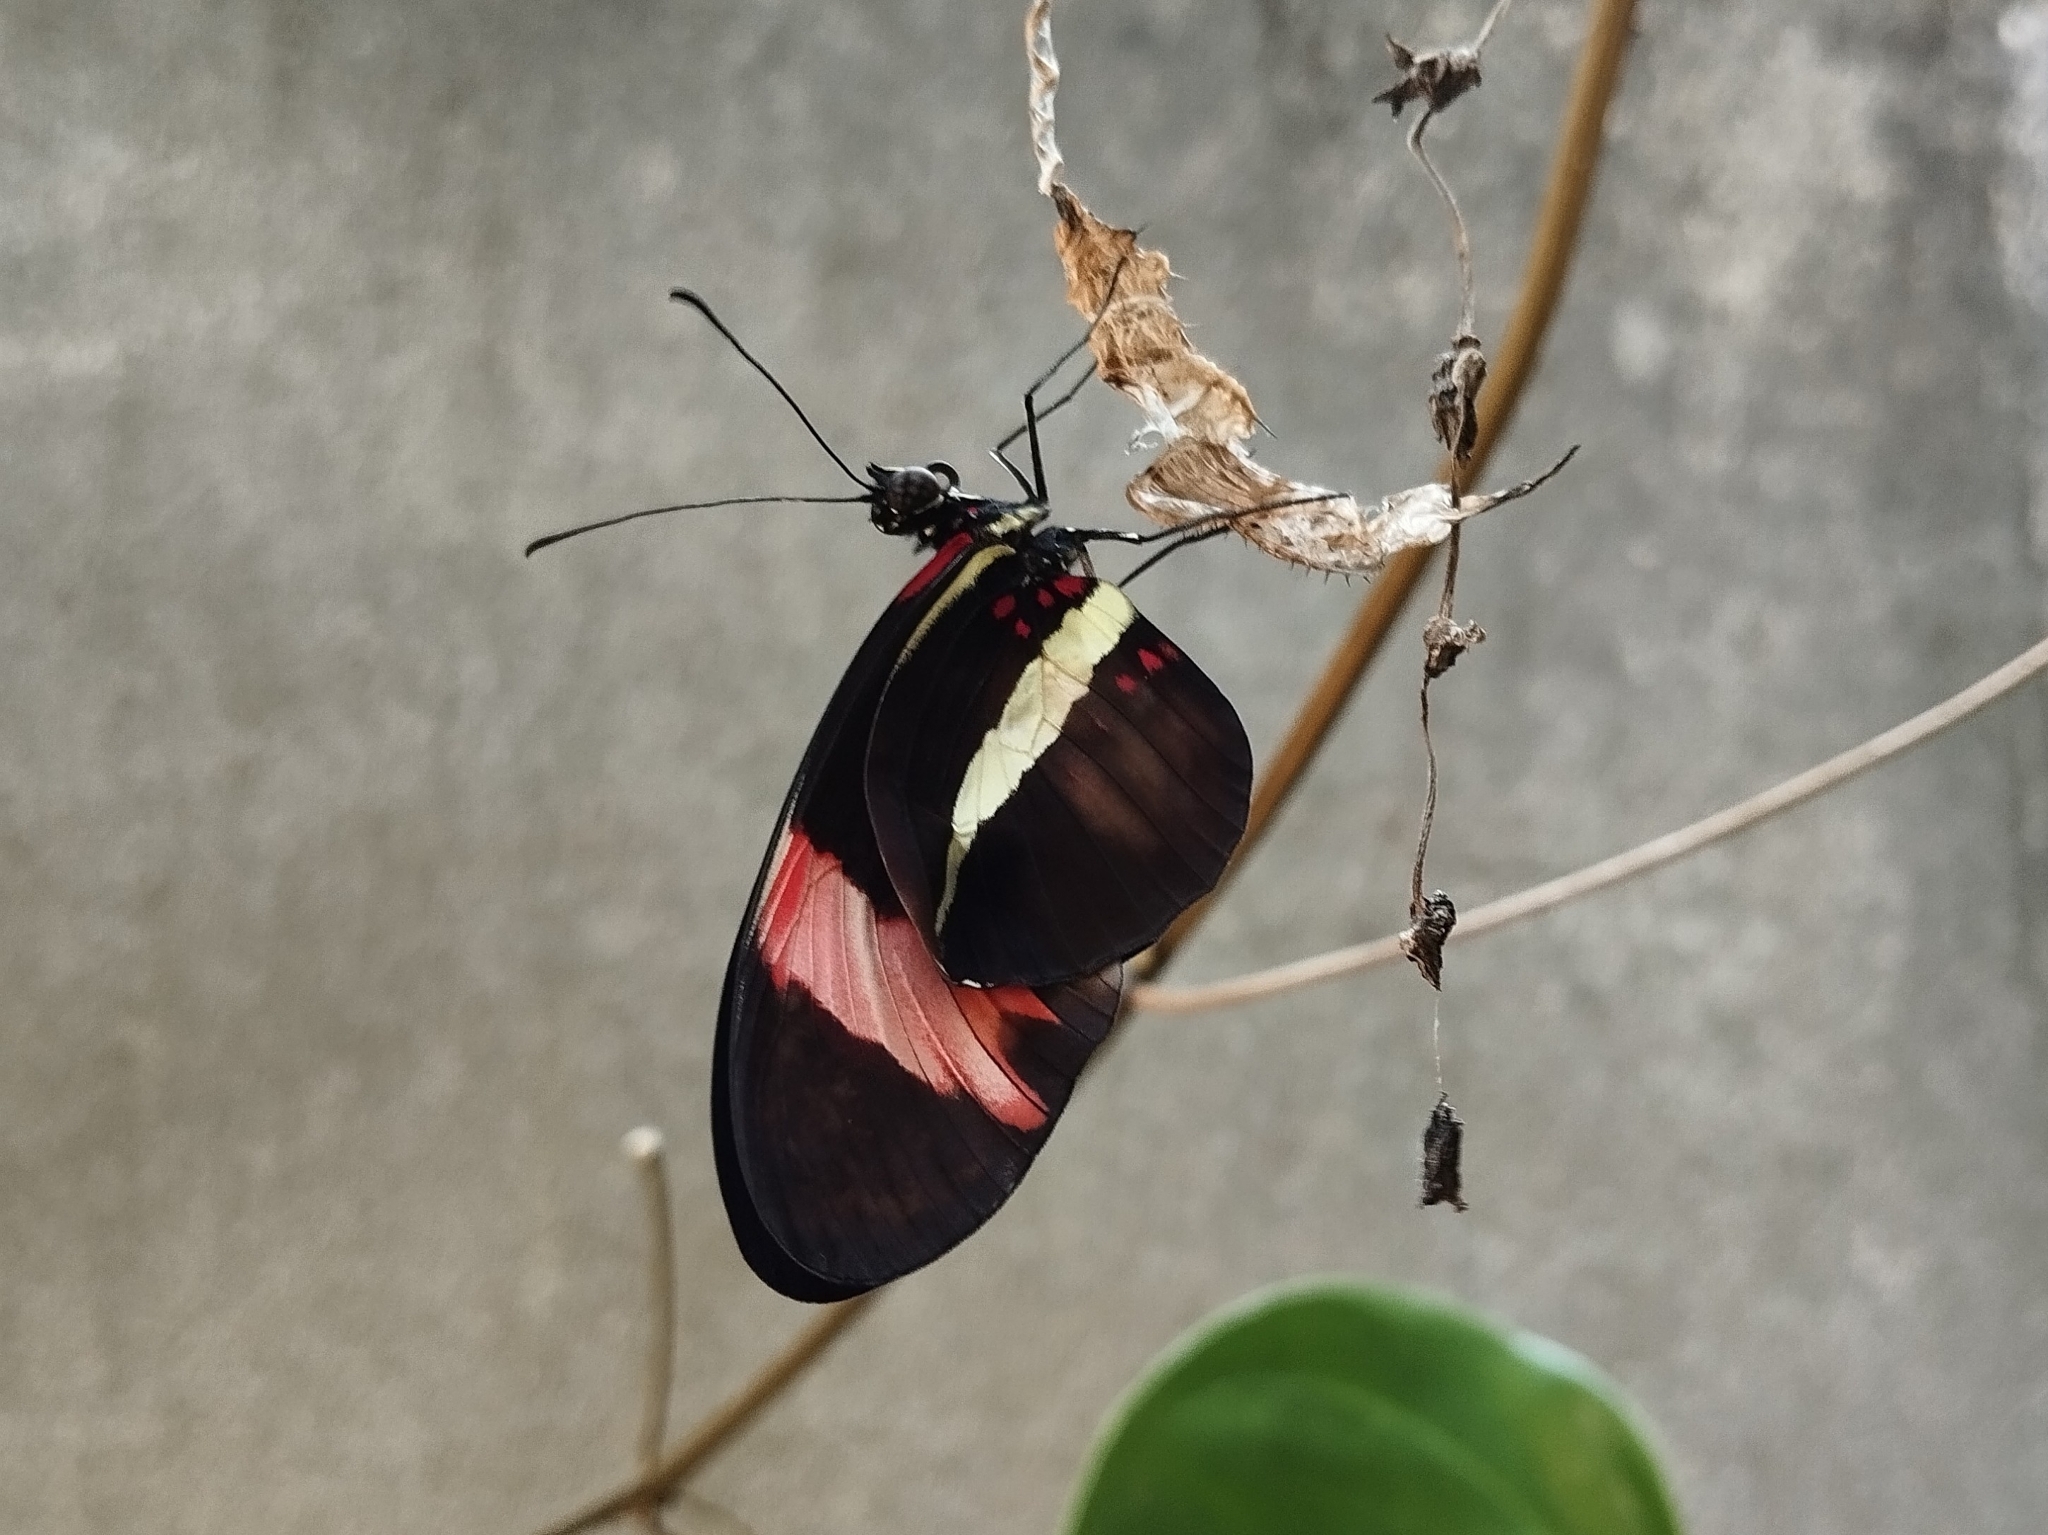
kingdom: Animalia
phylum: Arthropoda
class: Insecta
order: Lepidoptera
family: Nymphalidae
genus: Heliconius
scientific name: Heliconius erato
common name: Common patch longwing
